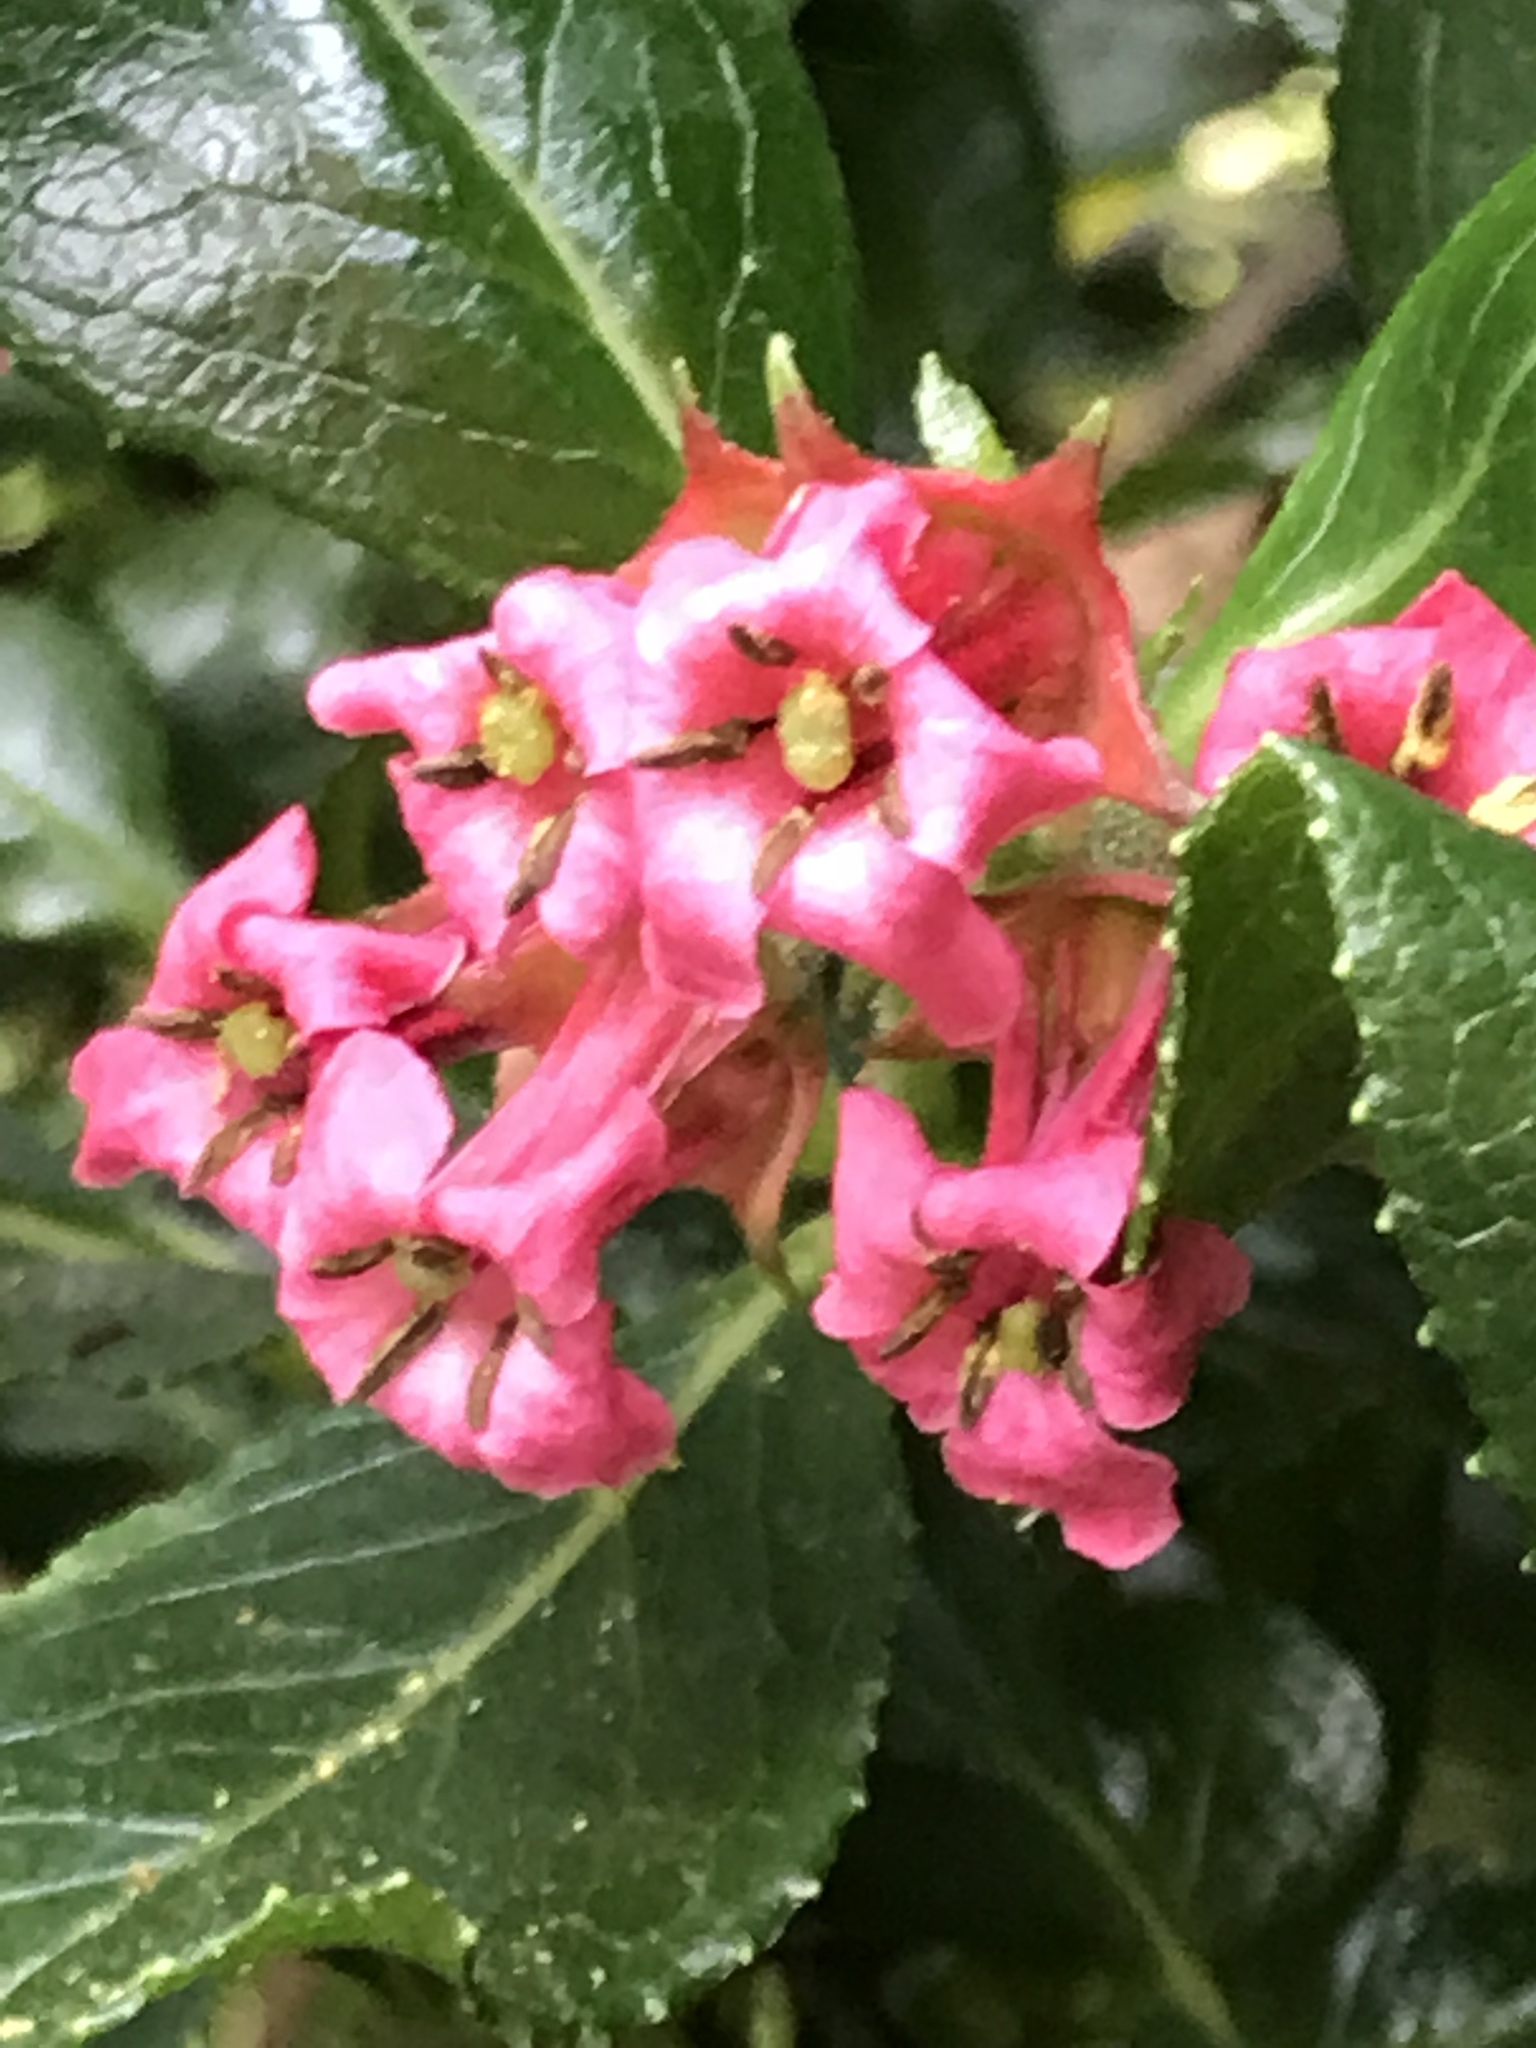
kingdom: Plantae
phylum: Tracheophyta
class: Magnoliopsida
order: Escalloniales
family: Escalloniaceae
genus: Escallonia
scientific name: Escallonia rubra
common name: Redclaws
